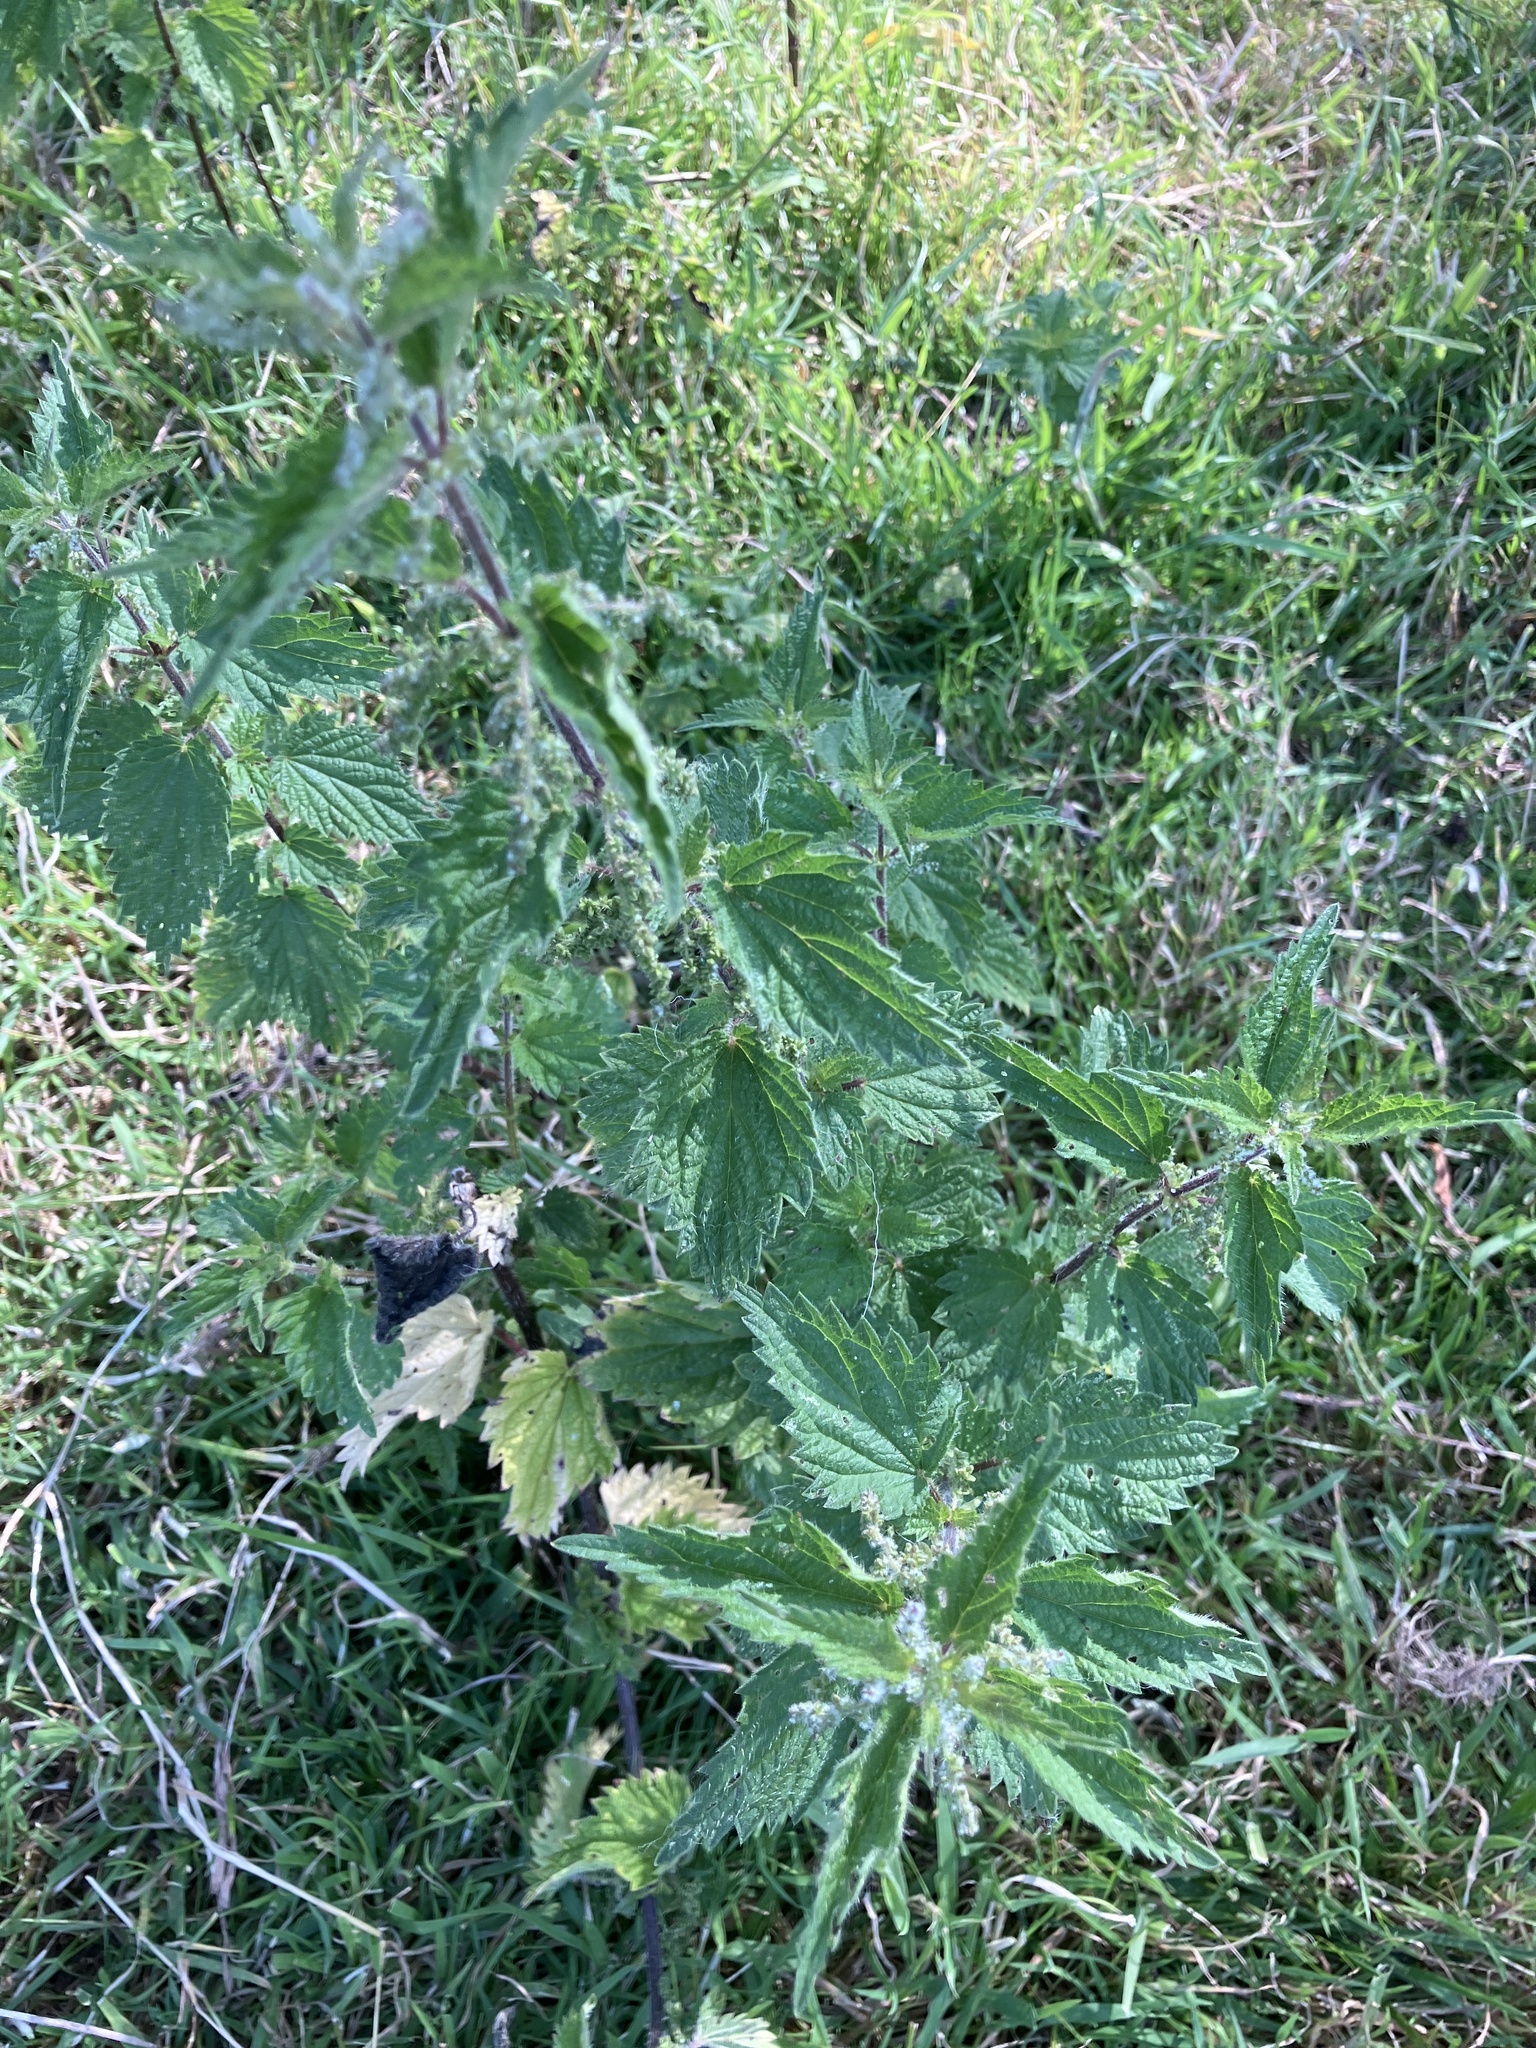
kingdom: Plantae
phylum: Tracheophyta
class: Magnoliopsida
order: Rosales
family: Urticaceae
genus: Urtica
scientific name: Urtica dioica
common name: Common nettle
